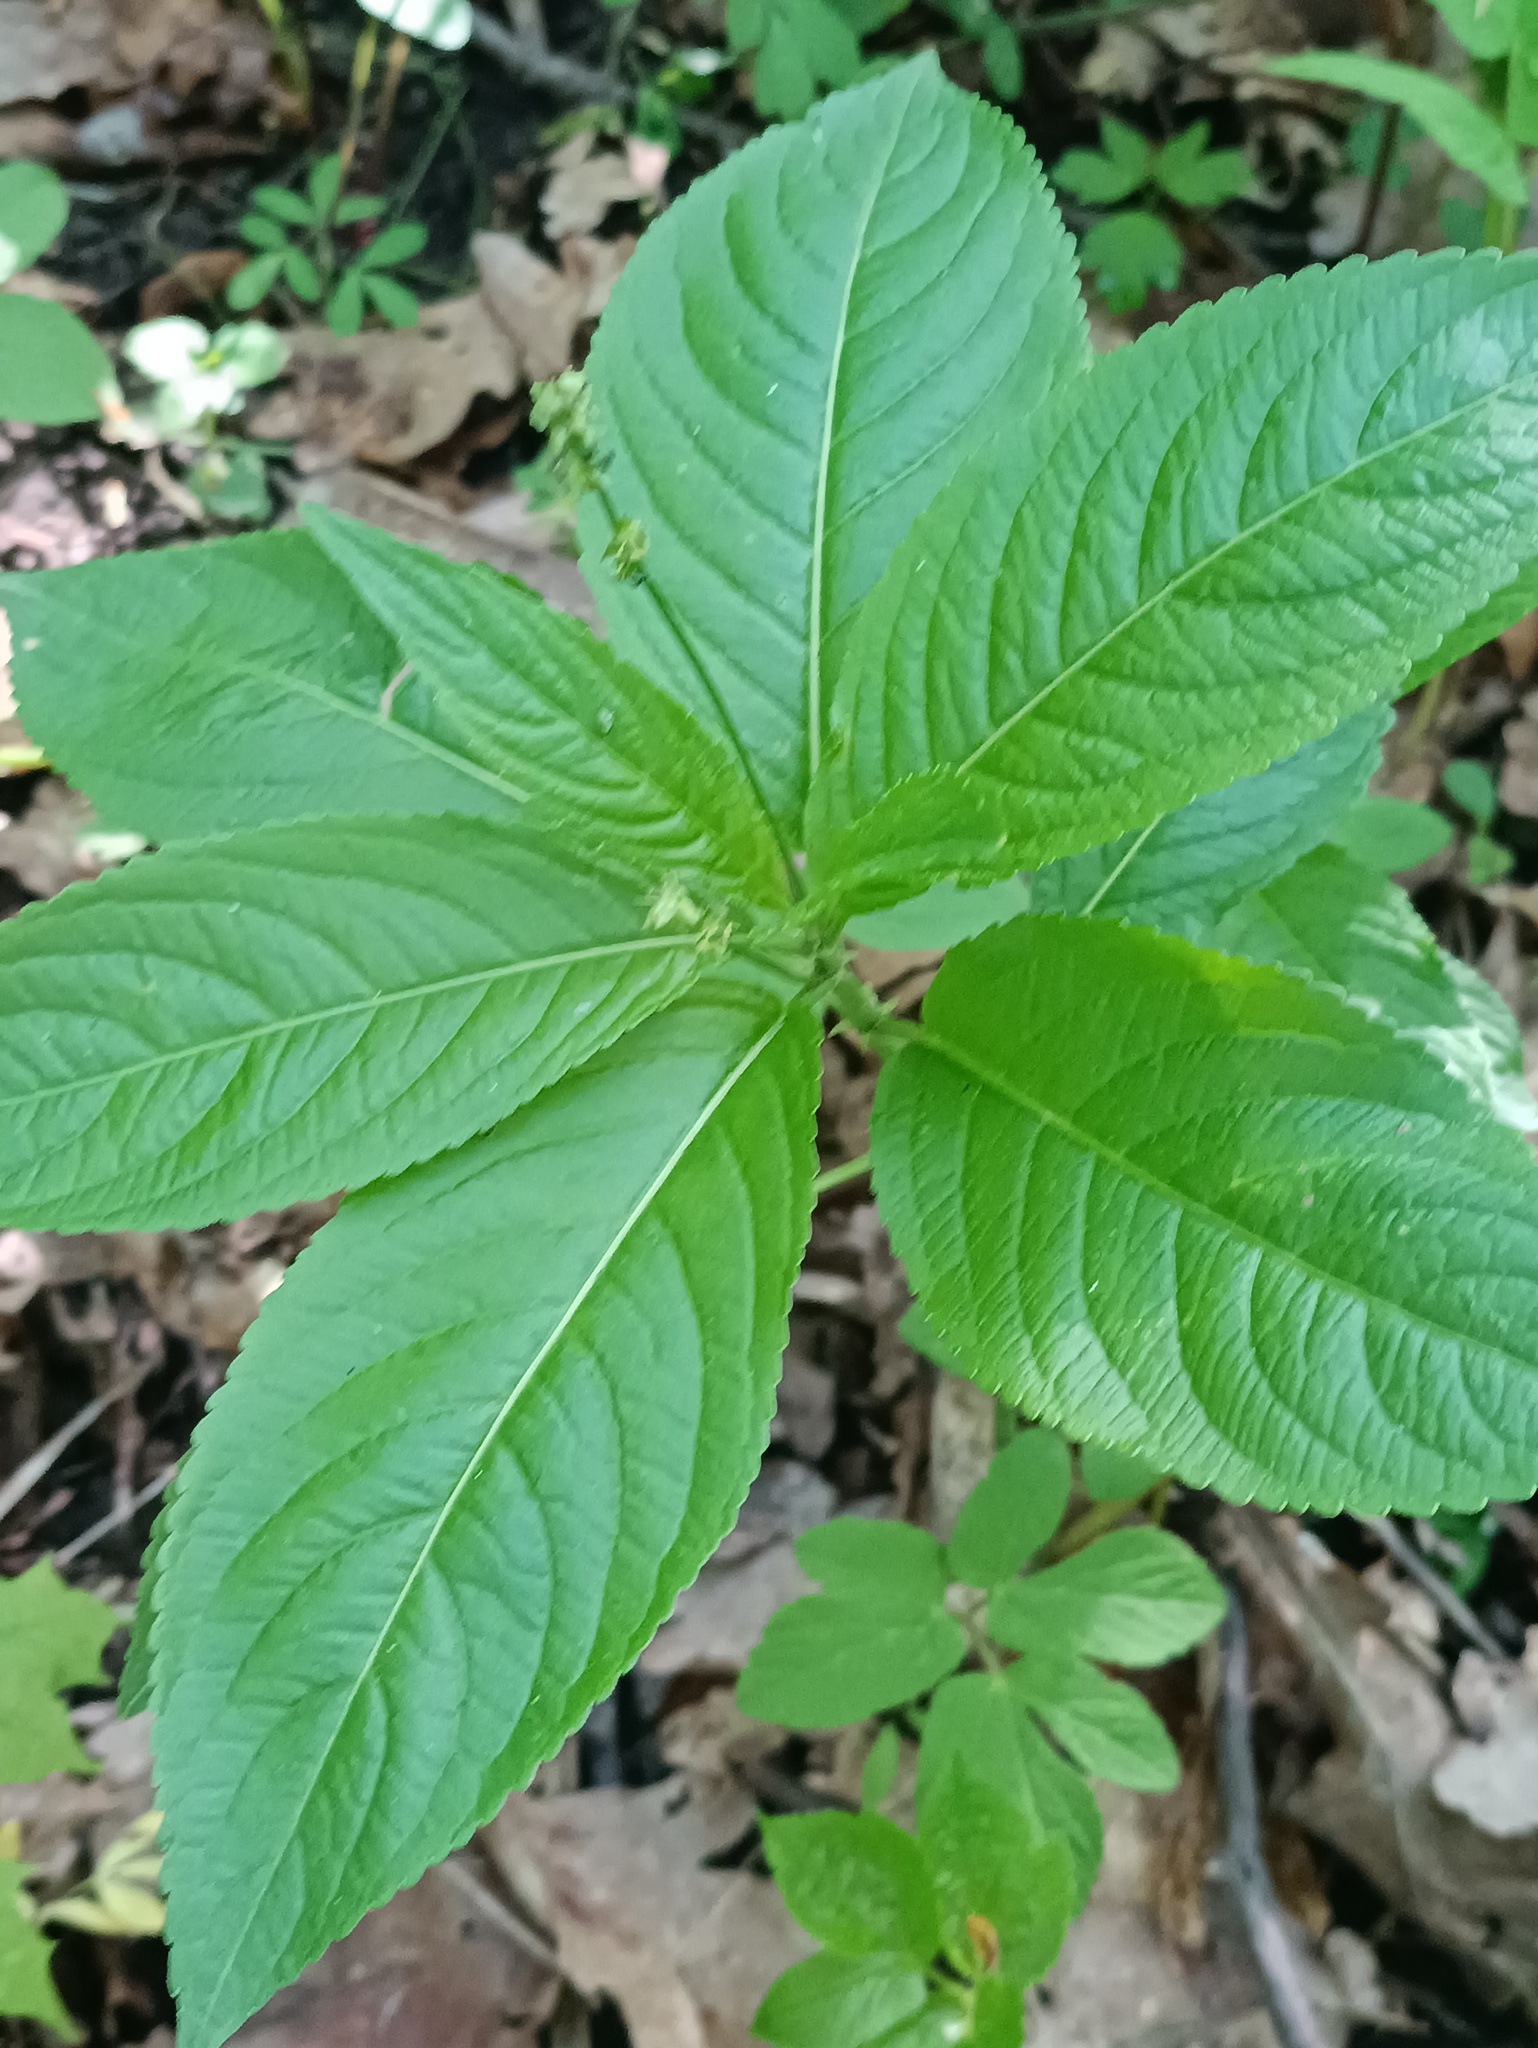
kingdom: Plantae
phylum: Tracheophyta
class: Magnoliopsida
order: Malpighiales
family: Euphorbiaceae
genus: Mercurialis
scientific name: Mercurialis perennis
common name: Dog mercury
